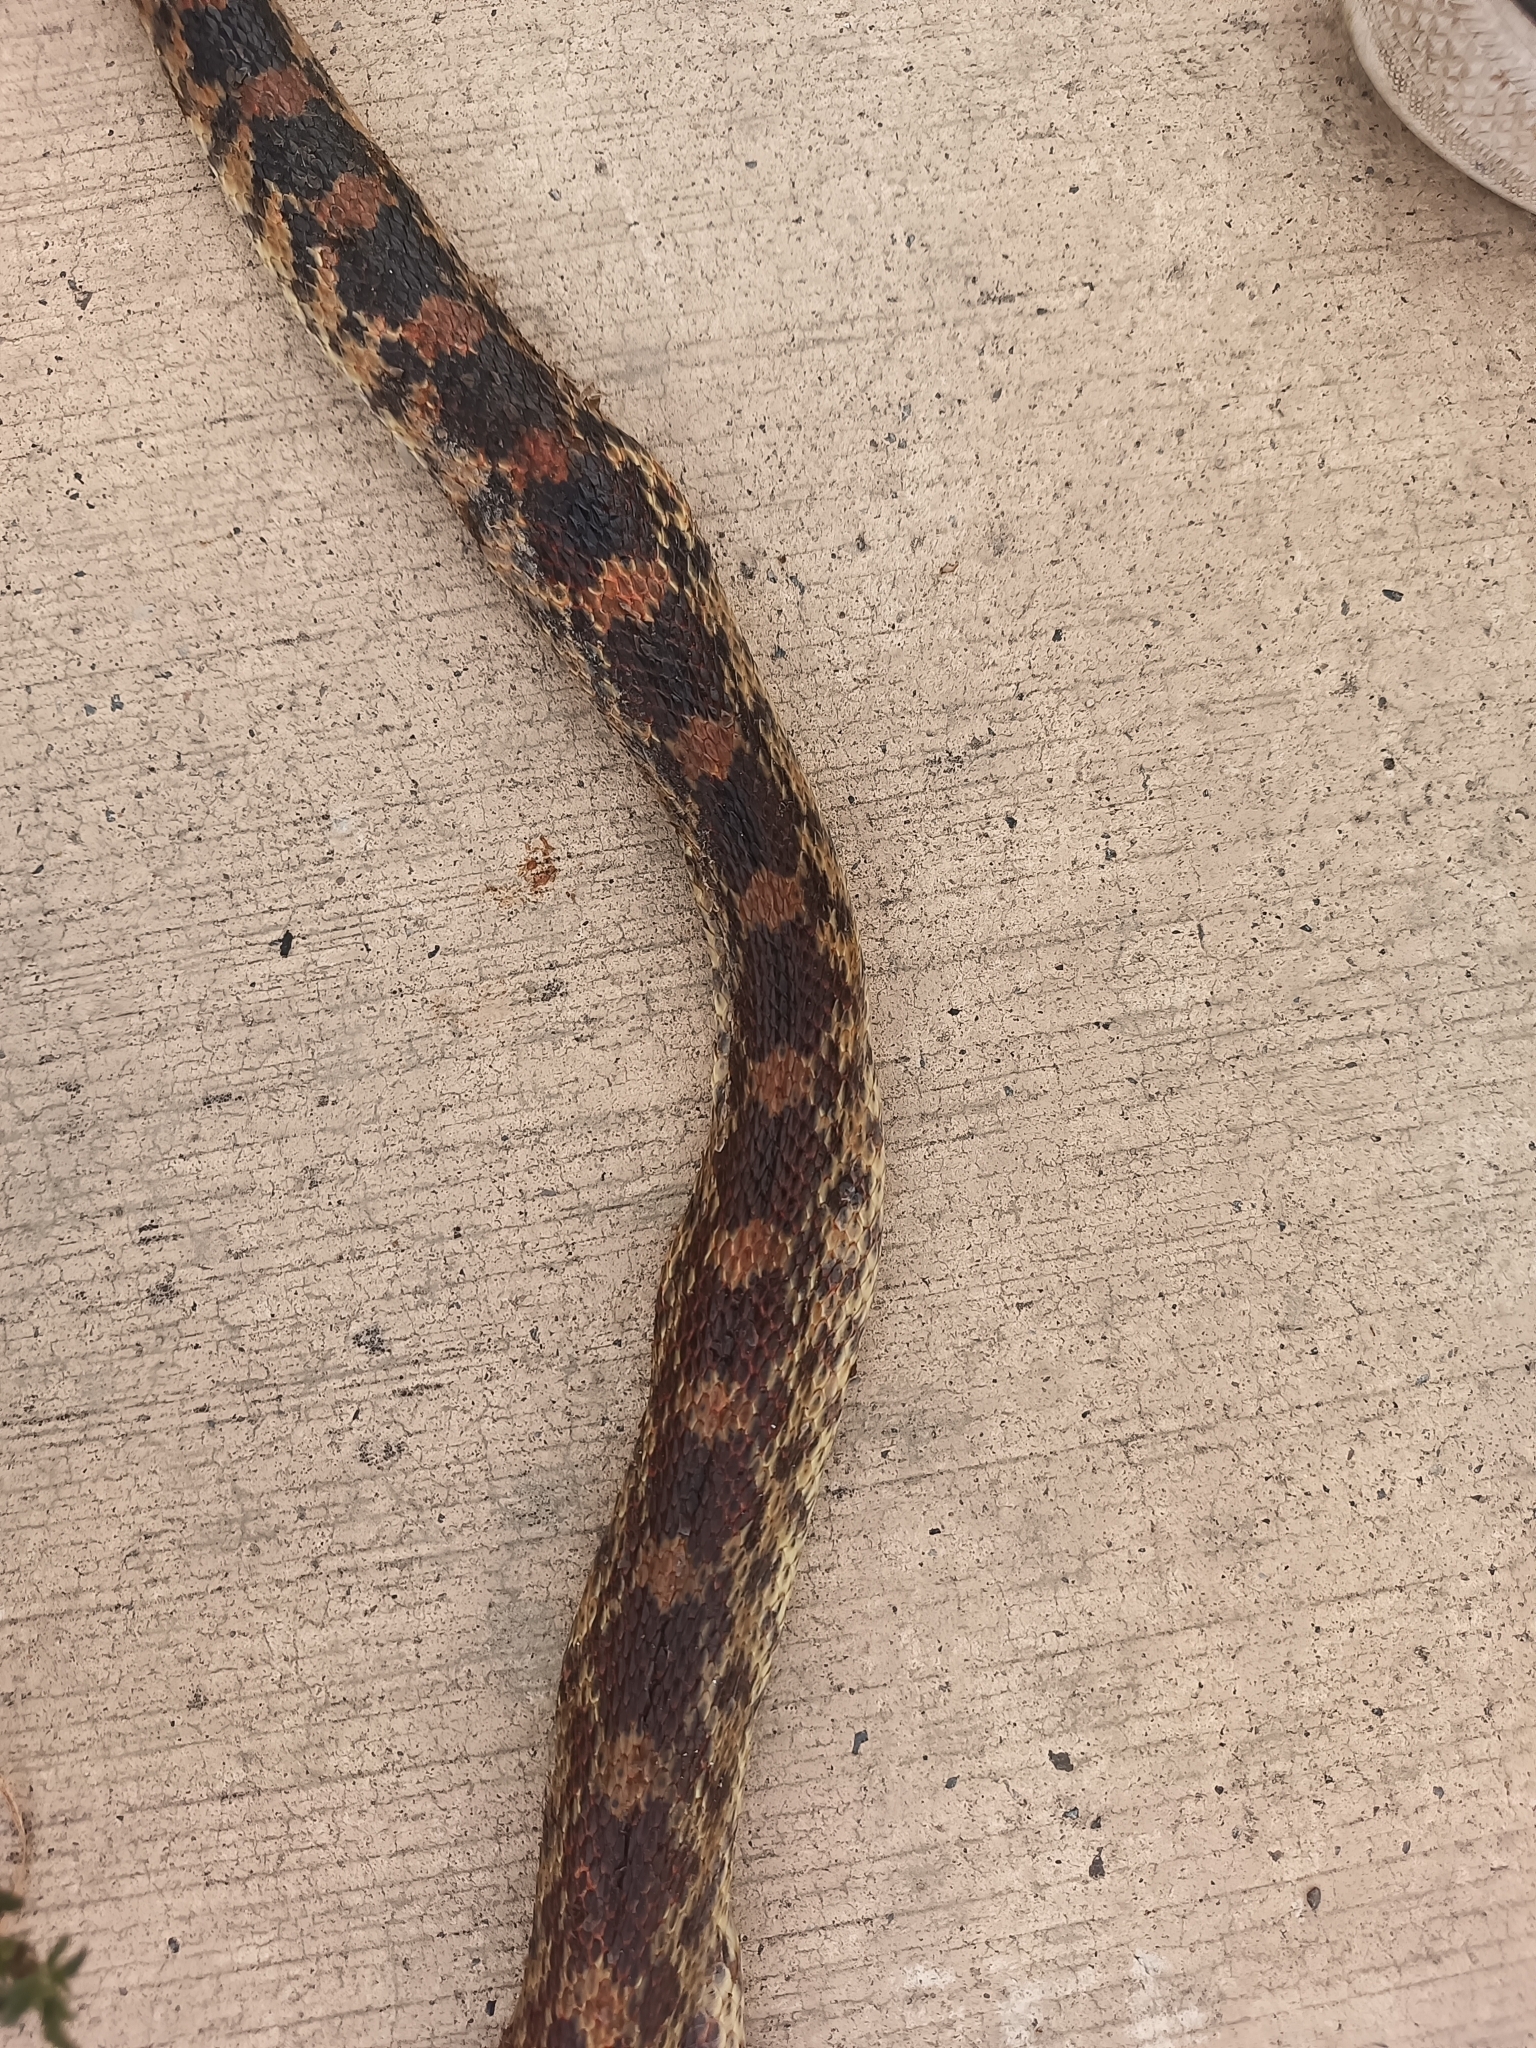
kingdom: Animalia
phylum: Chordata
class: Squamata
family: Colubridae
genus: Pituophis
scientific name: Pituophis deppei
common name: Mexican bull snake
